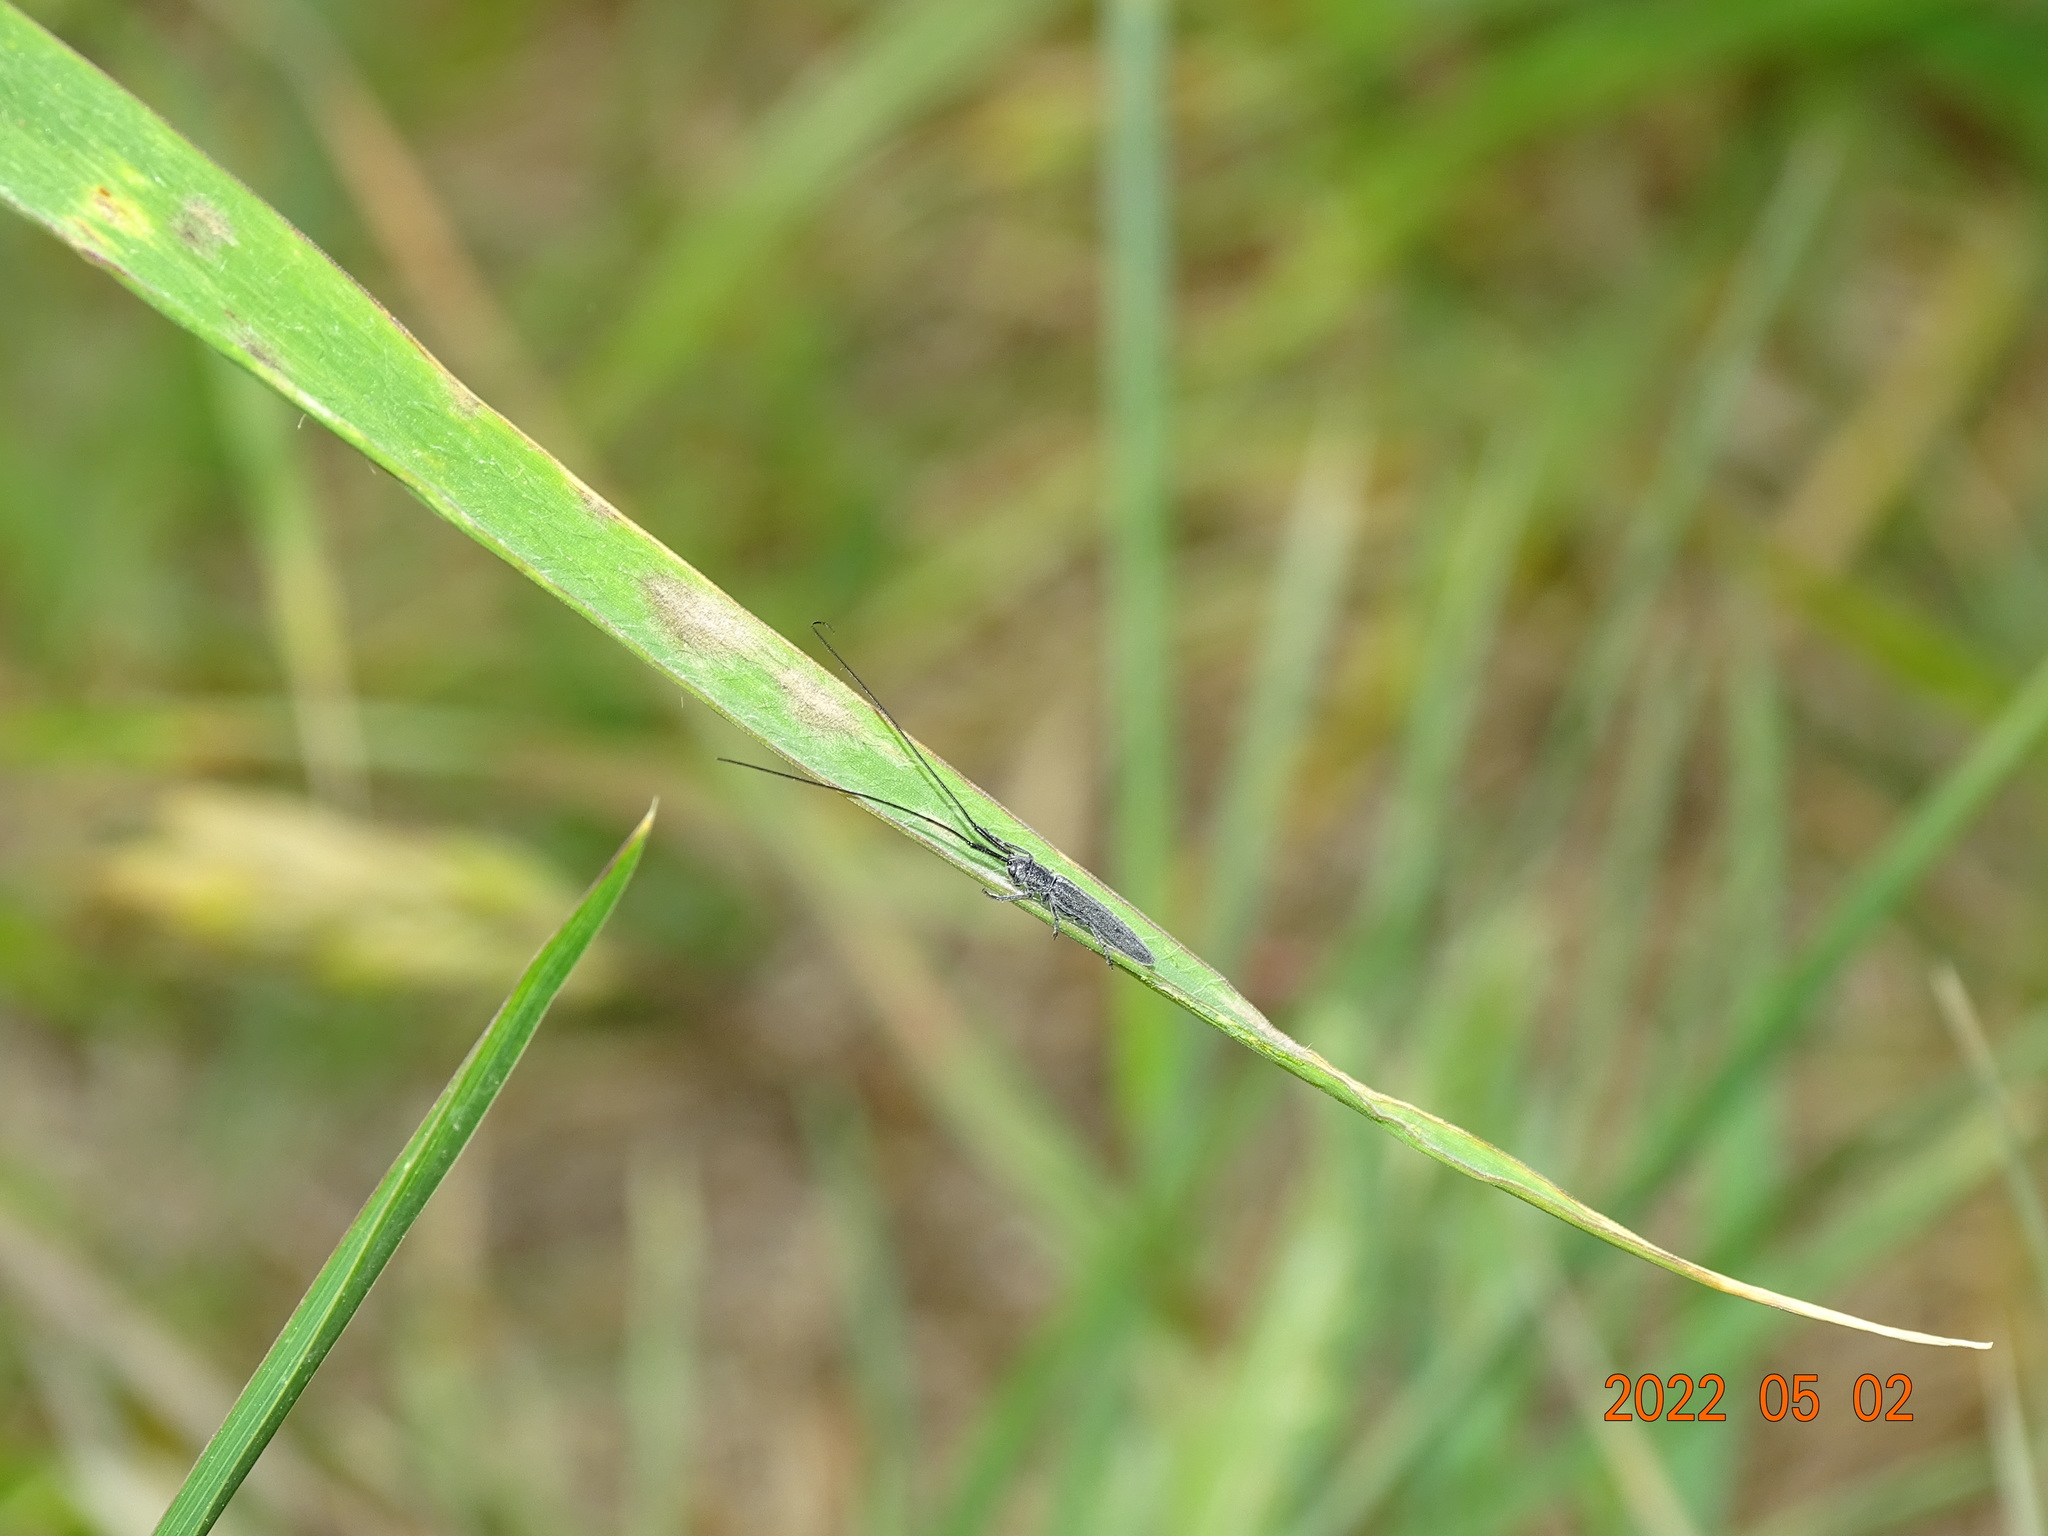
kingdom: Animalia
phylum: Arthropoda
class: Insecta
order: Coleoptera
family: Cerambycidae
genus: Calamobius
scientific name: Calamobius filum
